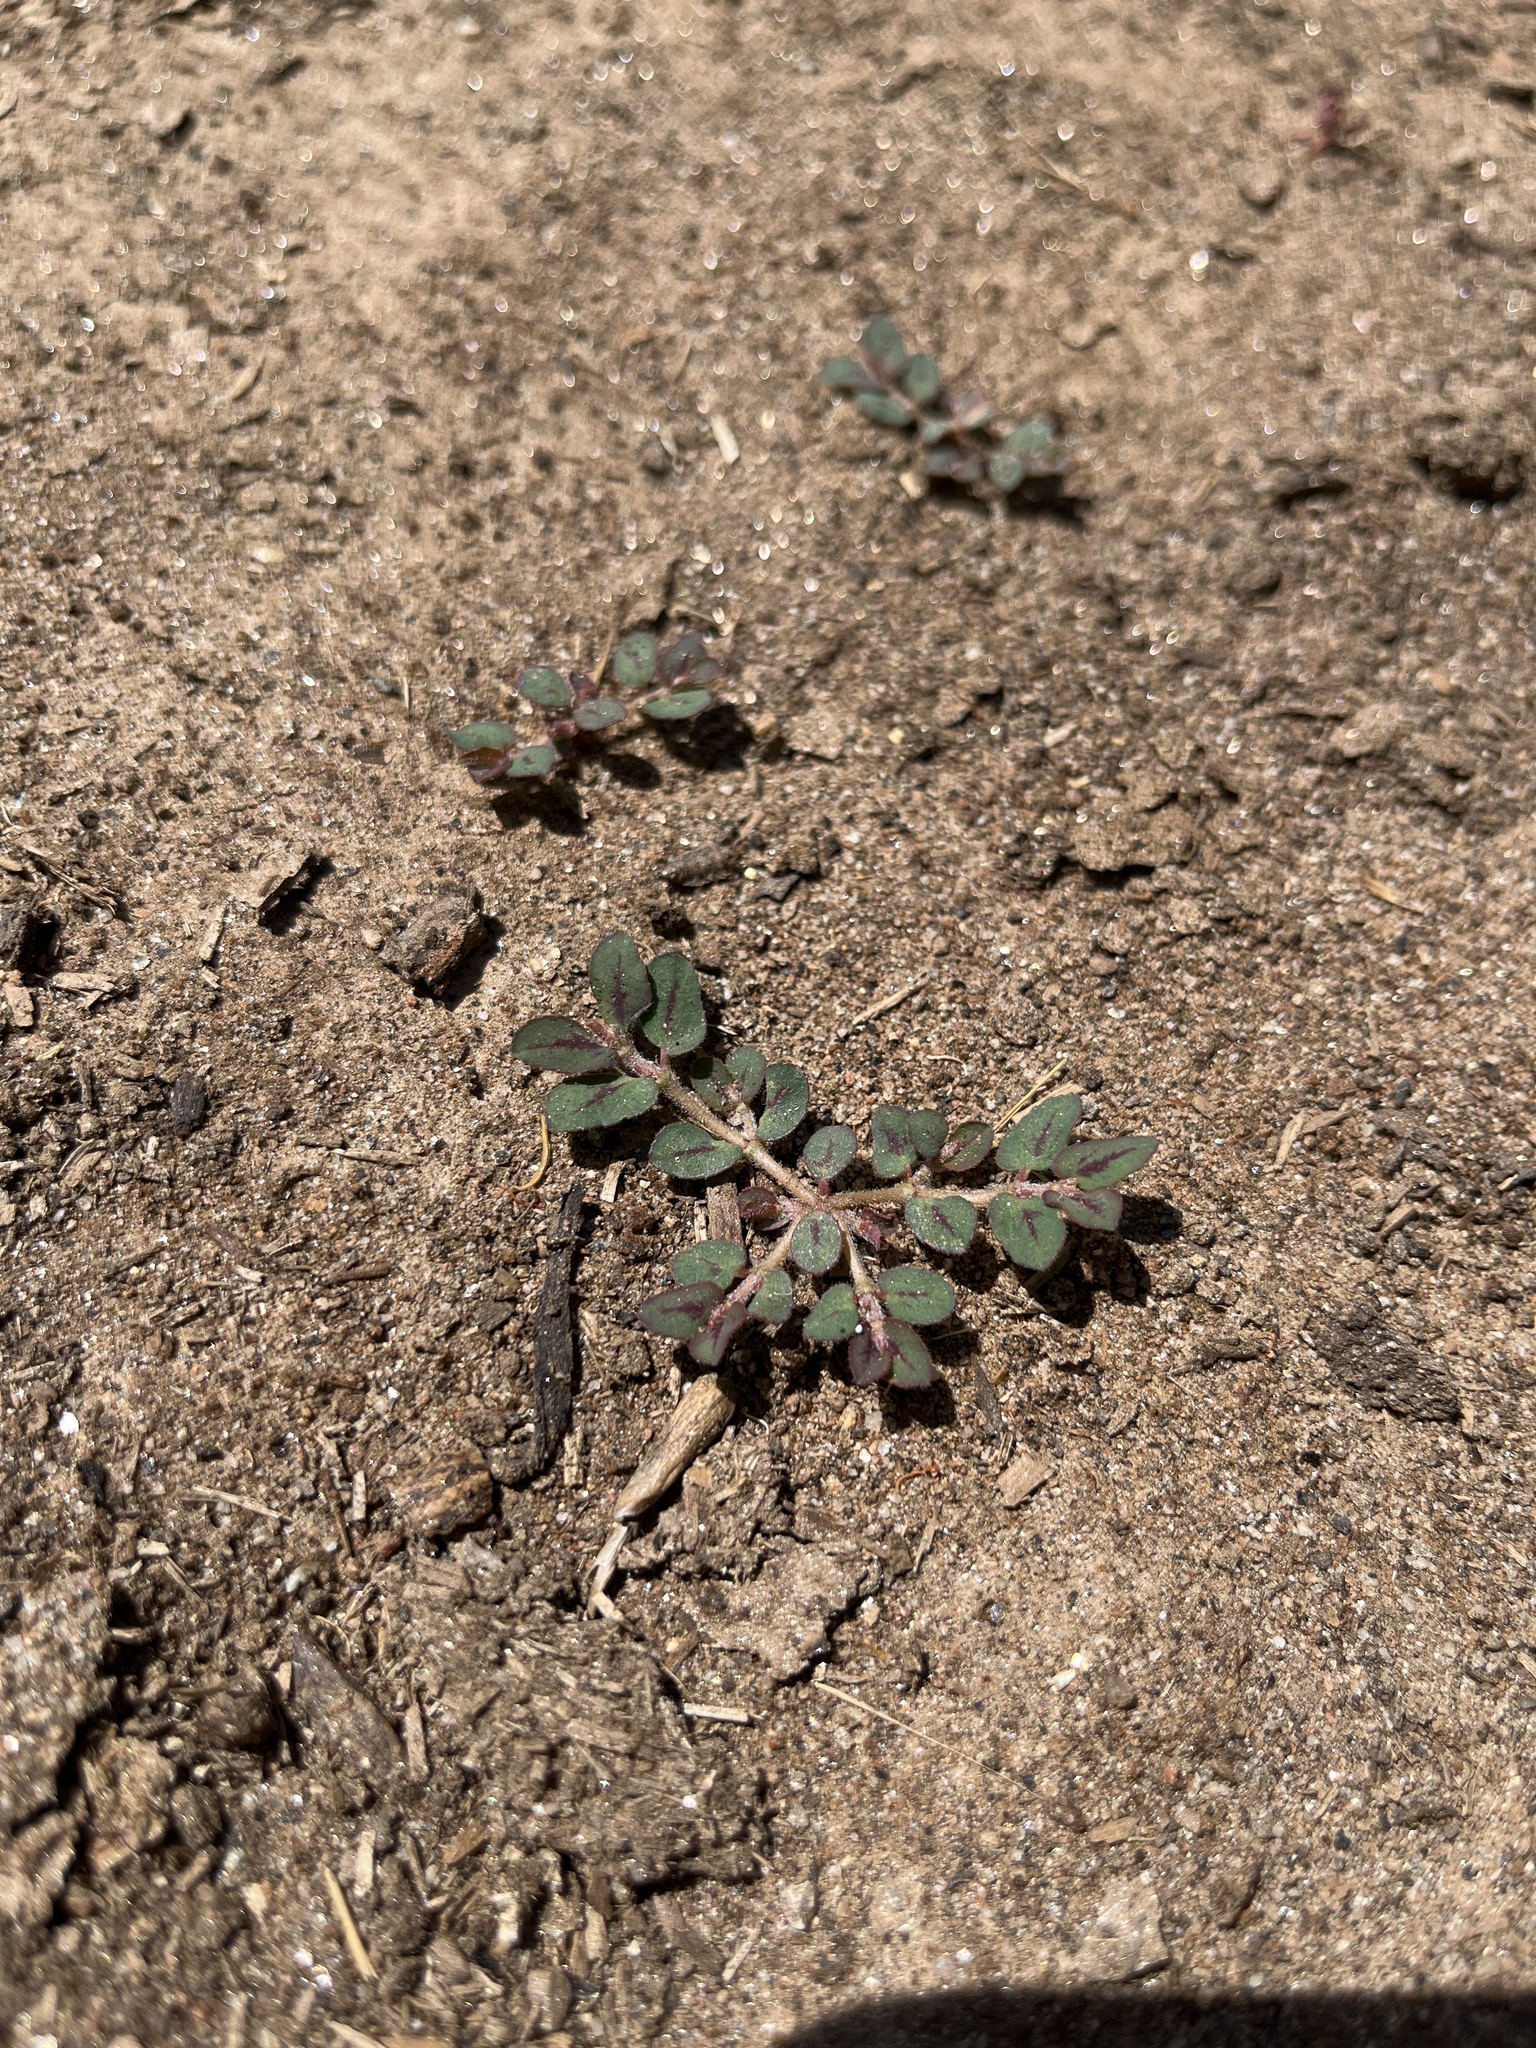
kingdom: Plantae
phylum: Tracheophyta
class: Magnoliopsida
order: Malpighiales
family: Euphorbiaceae
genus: Euphorbia
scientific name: Euphorbia maculata
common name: Spotted spurge
